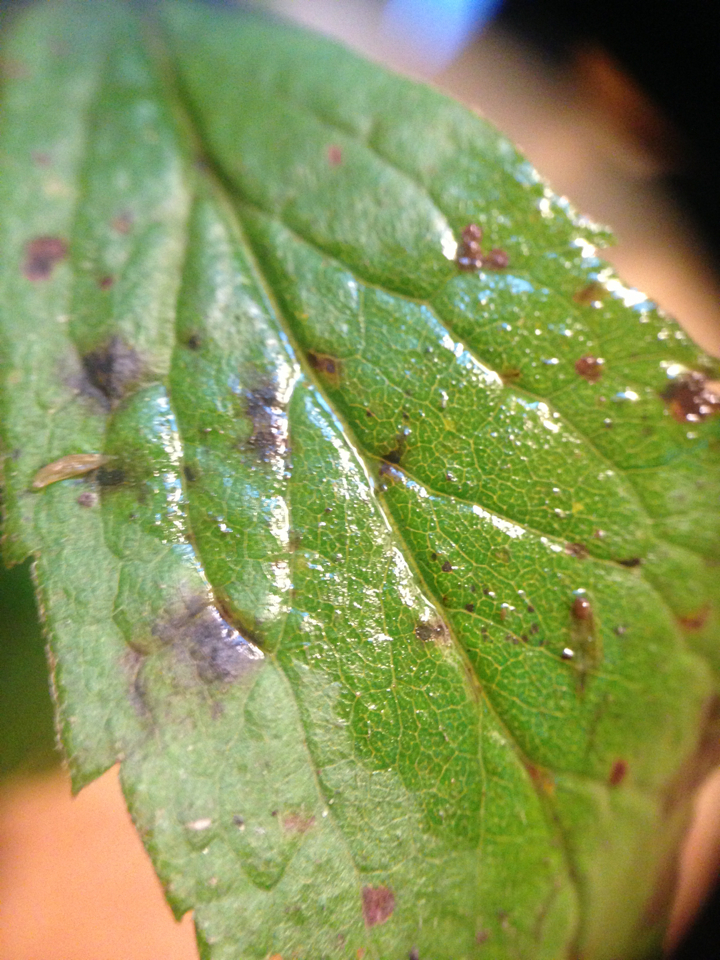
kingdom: Plantae
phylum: Tracheophyta
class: Magnoliopsida
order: Asterales
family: Asteraceae
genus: Solidago
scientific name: Solidago rugosa
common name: Rough-stemmed goldenrod
